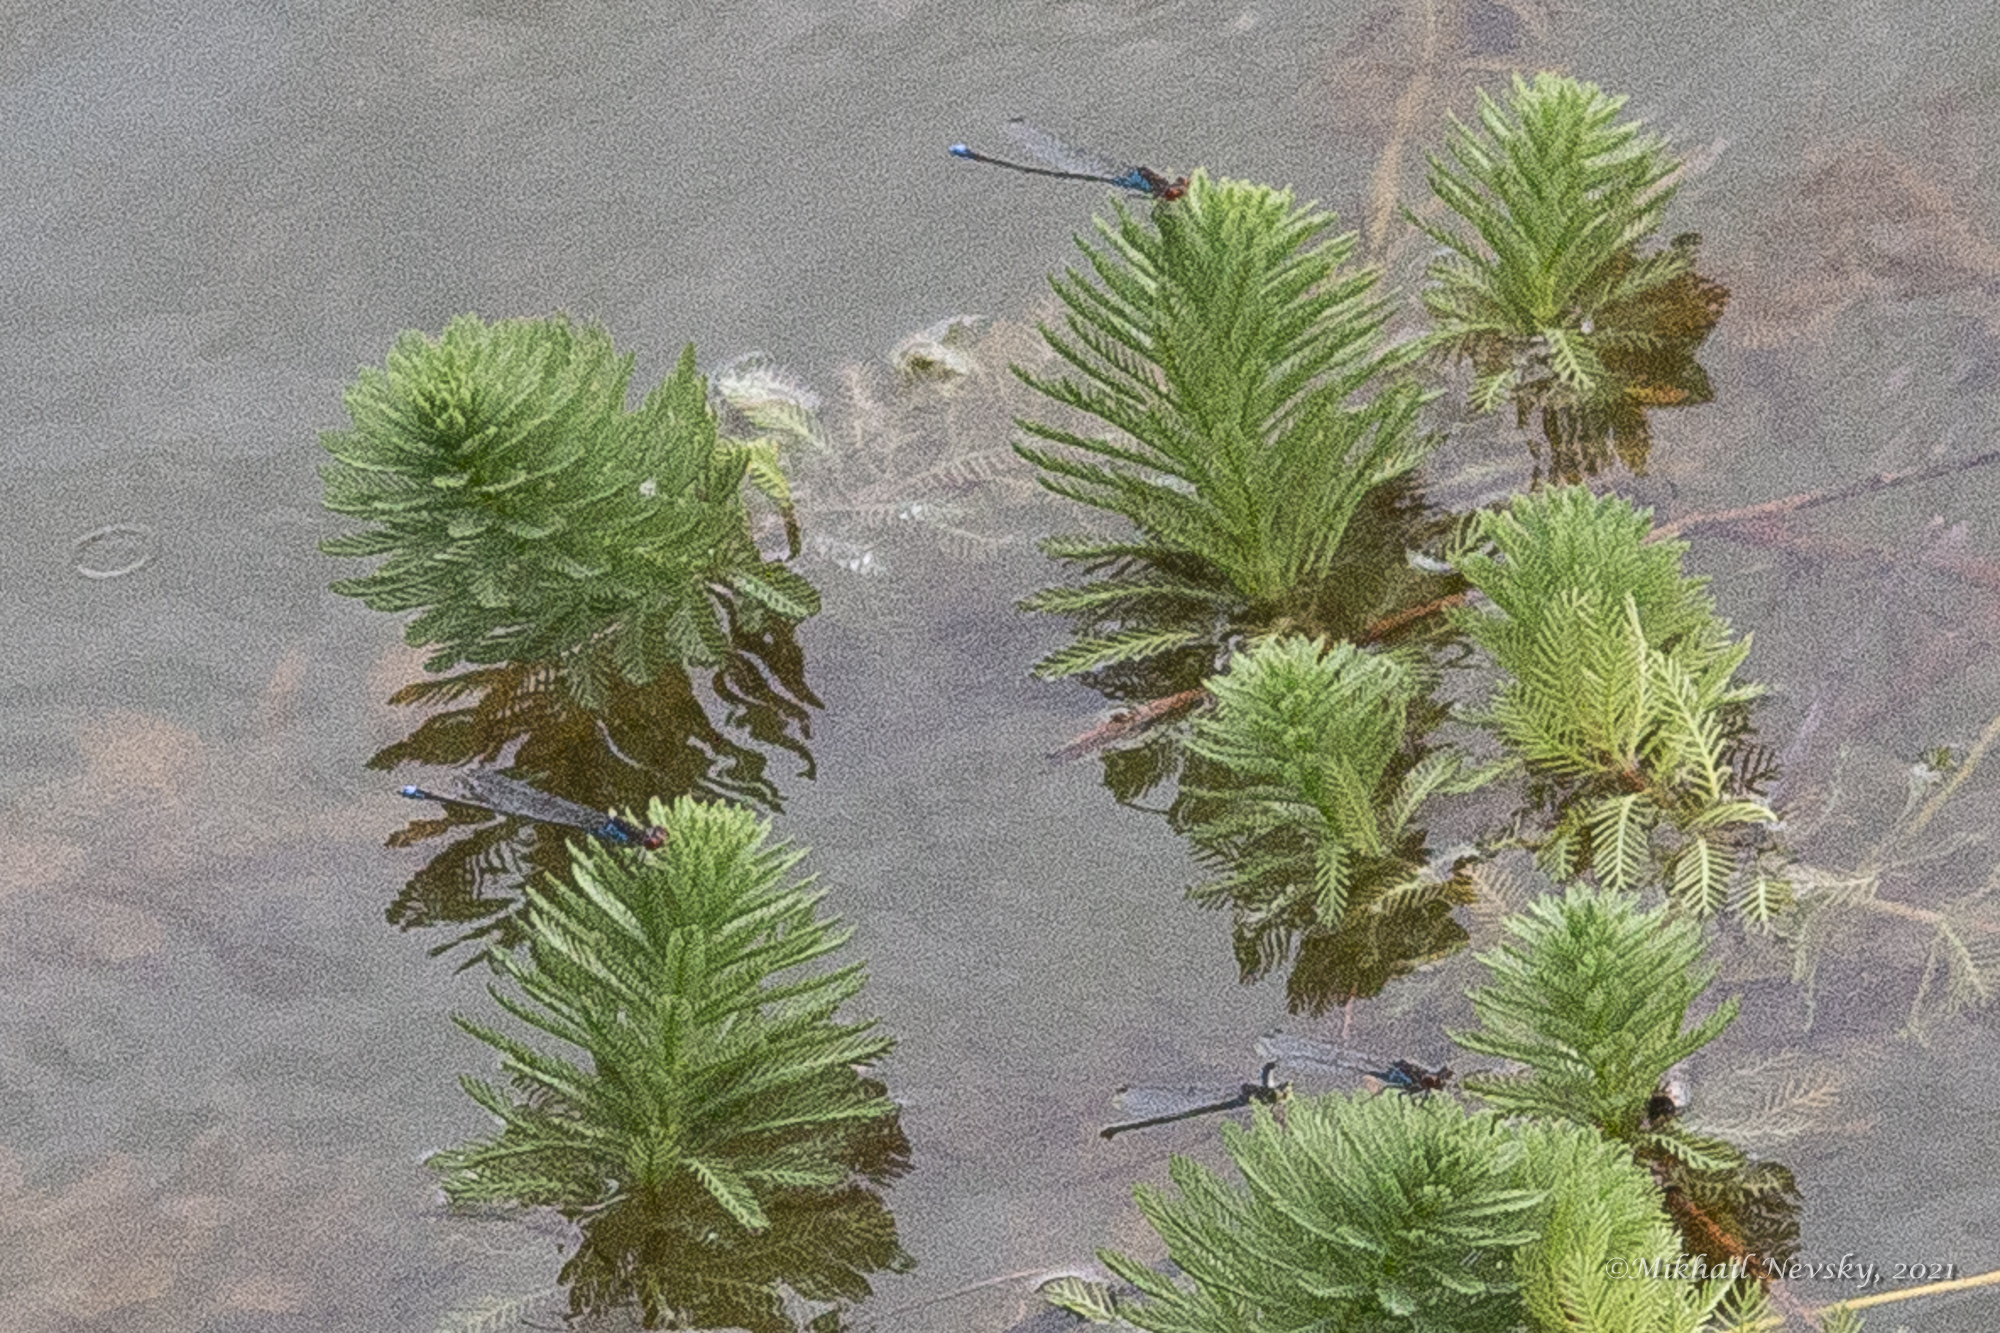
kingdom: Animalia
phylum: Arthropoda
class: Insecta
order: Odonata
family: Coenagrionidae
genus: Erythromma
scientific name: Erythromma viridulum
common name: Small red-eyed damselfly
